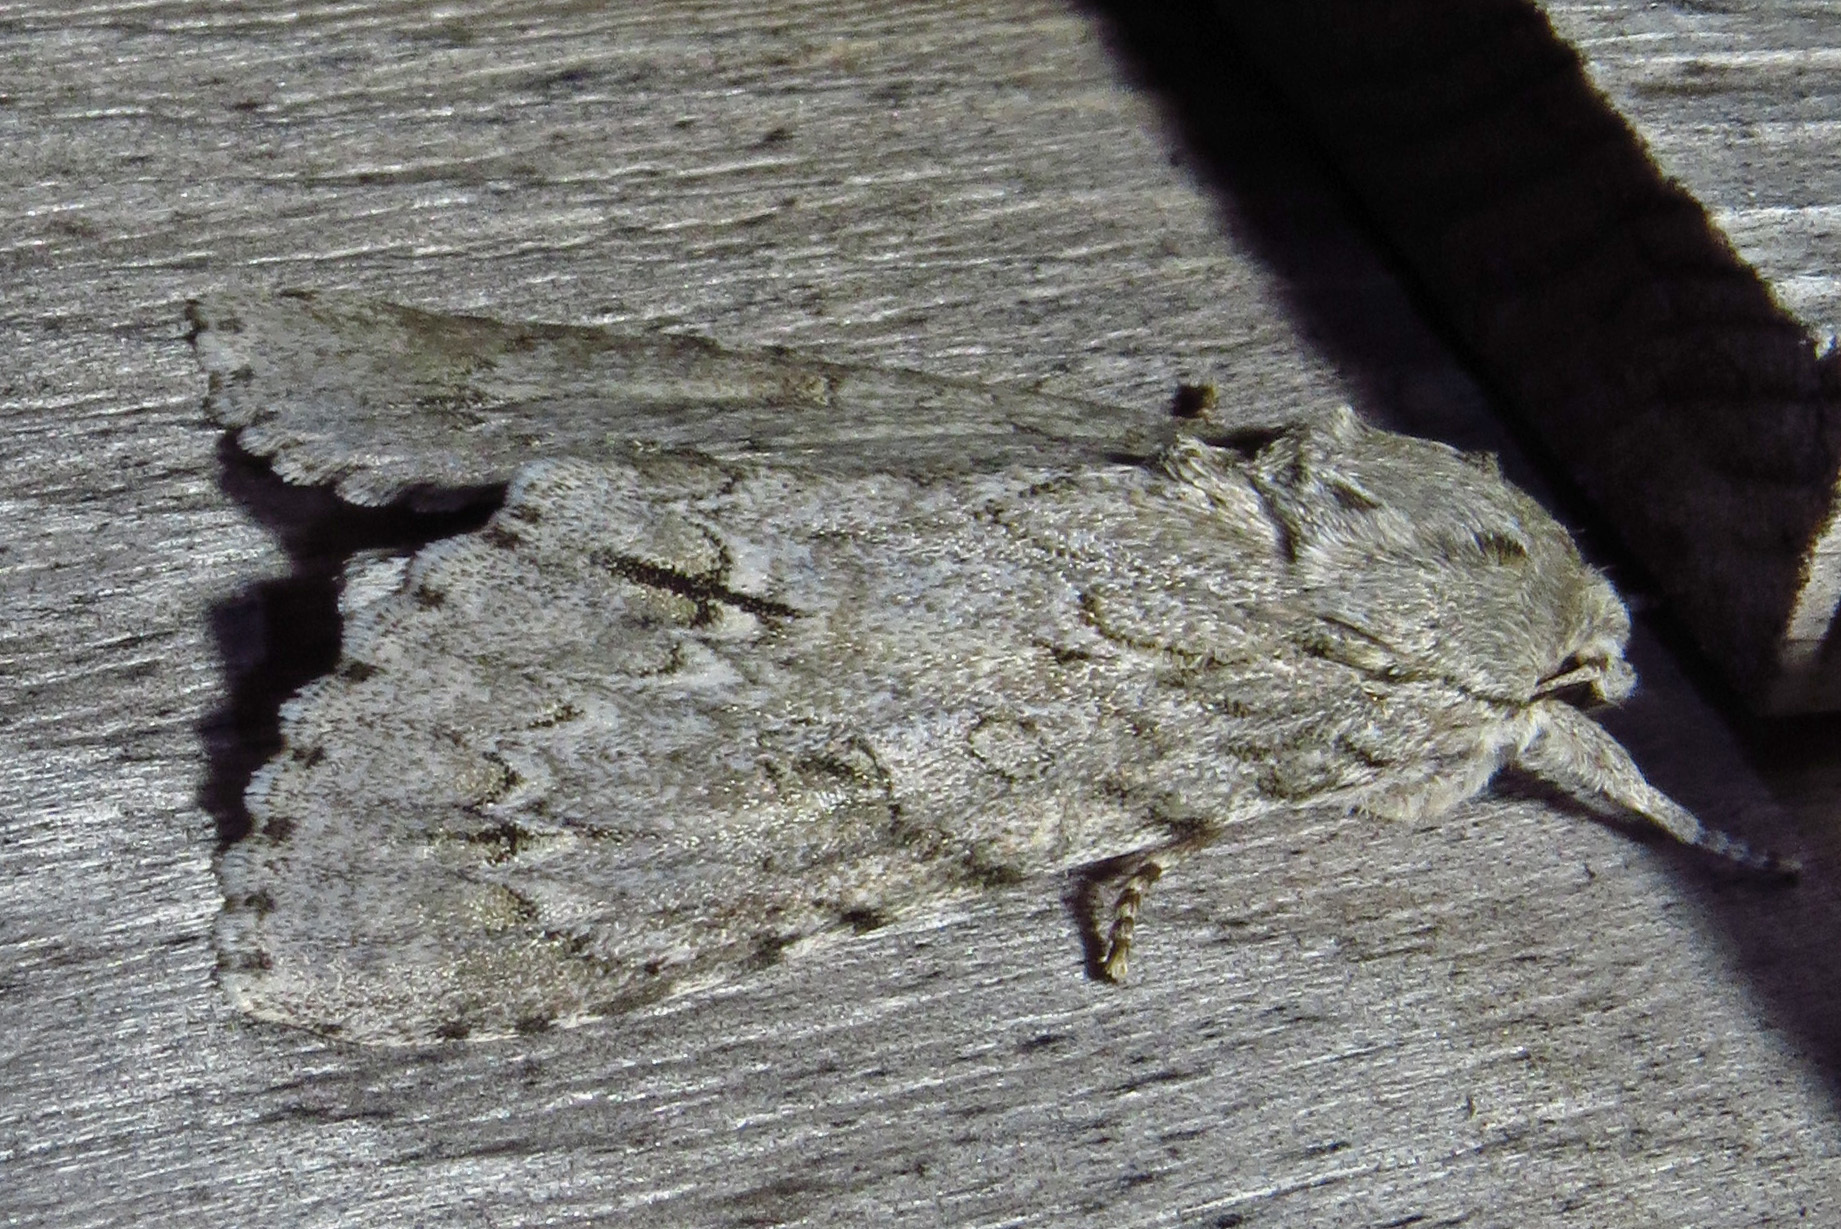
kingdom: Animalia
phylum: Arthropoda
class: Insecta
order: Lepidoptera
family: Noctuidae
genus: Acronicta
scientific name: Acronicta americana
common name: American dagger
